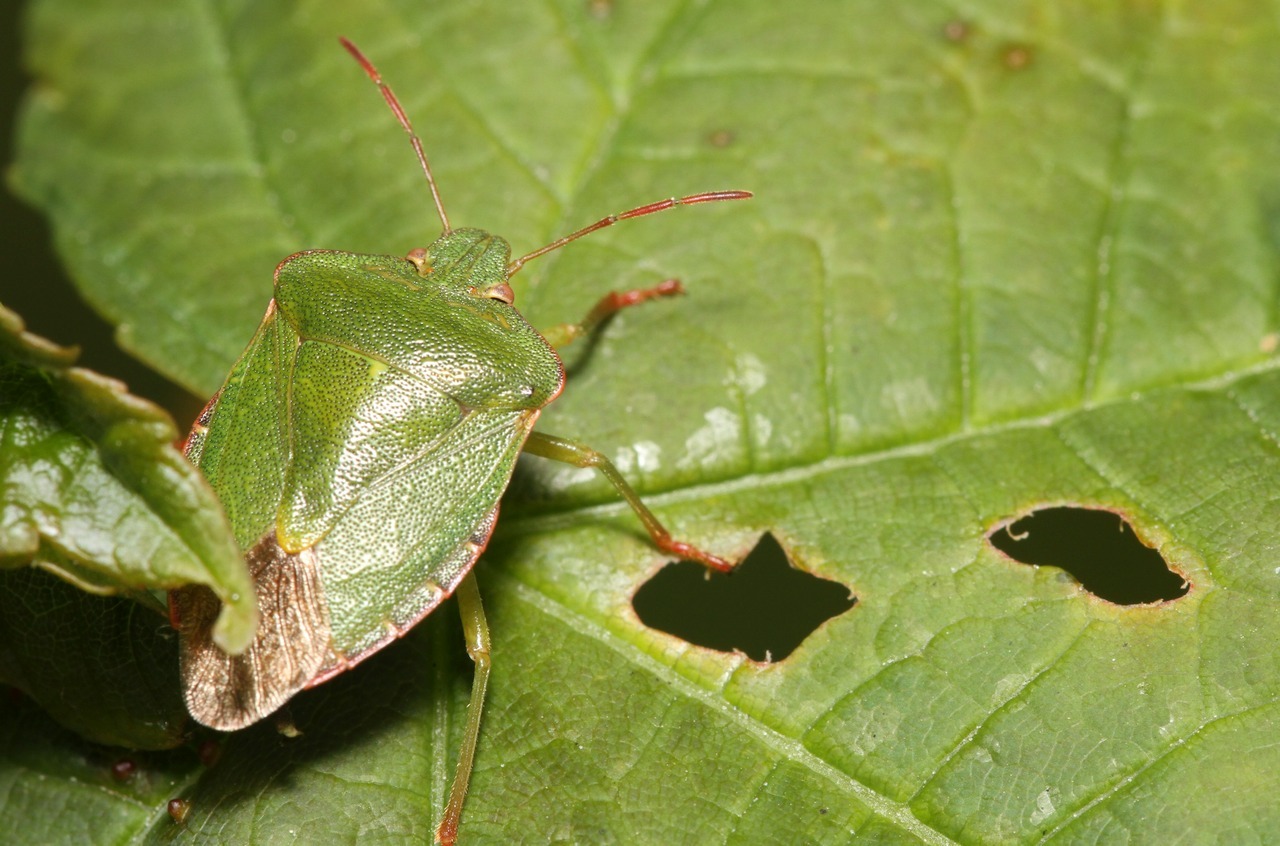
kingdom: Animalia
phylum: Arthropoda
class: Insecta
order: Hemiptera
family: Pentatomidae
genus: Palomena
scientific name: Palomena prasina
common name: Green shieldbug
